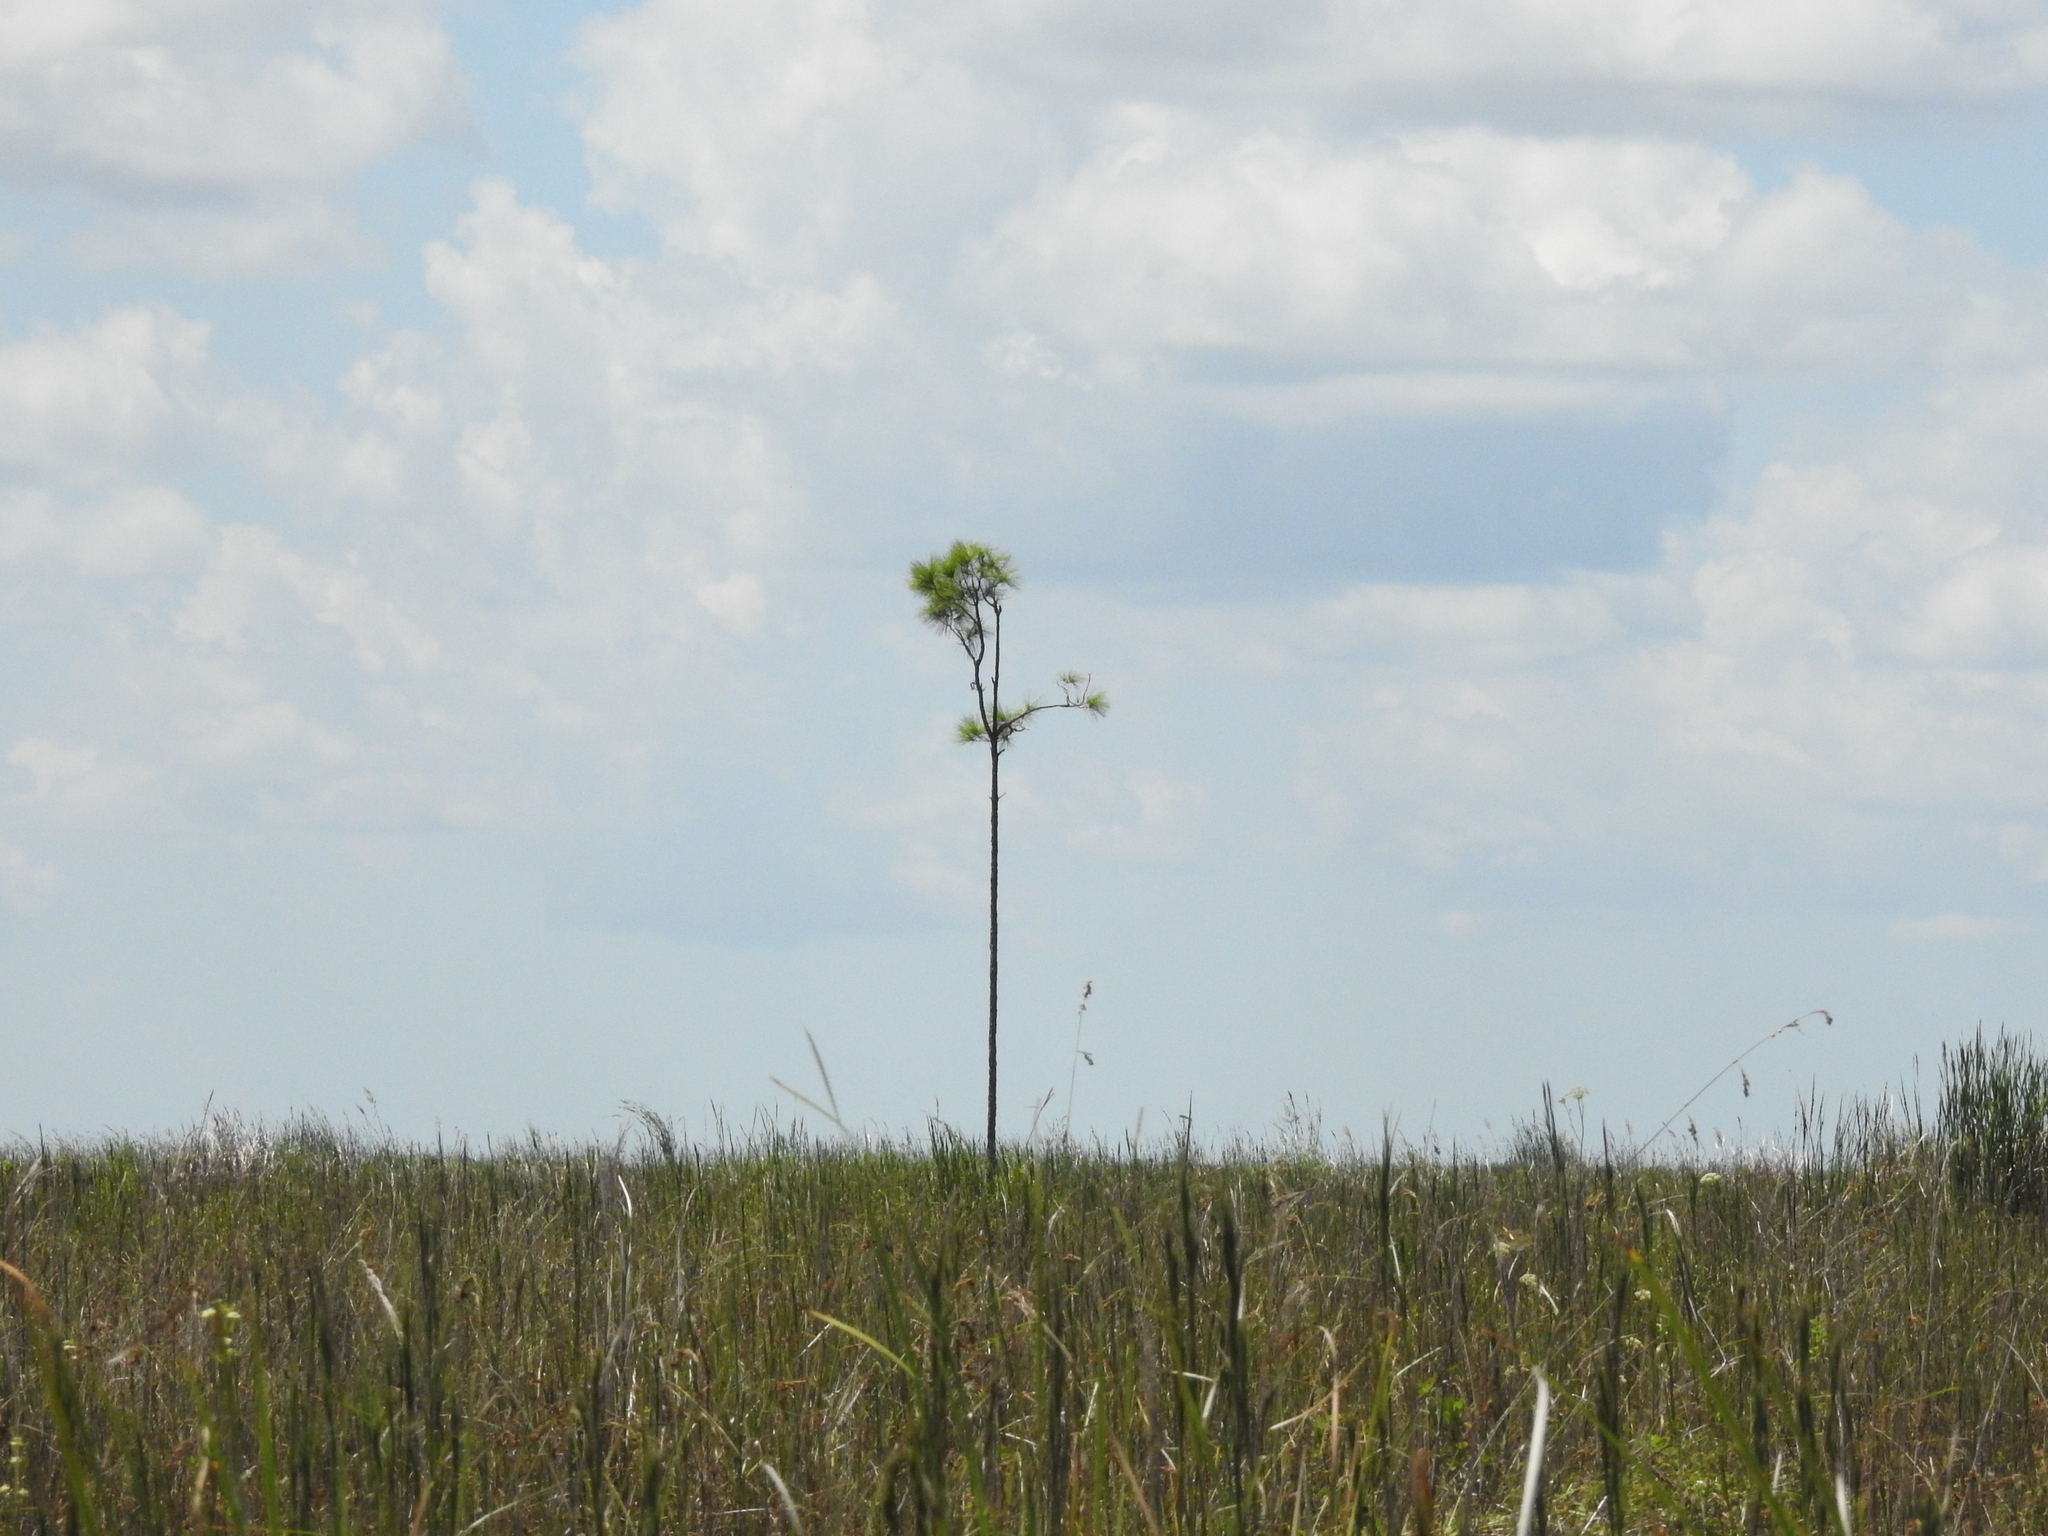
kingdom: Plantae
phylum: Tracheophyta
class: Pinopsida
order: Pinales
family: Pinaceae
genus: Pinus
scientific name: Pinus elliottii
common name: Slash pine
